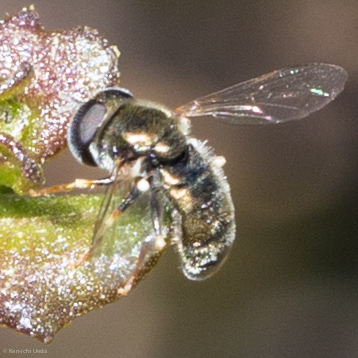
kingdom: Animalia
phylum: Arthropoda
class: Insecta
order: Diptera
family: Syrphidae
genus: Paragus
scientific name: Paragus haemorrhous
